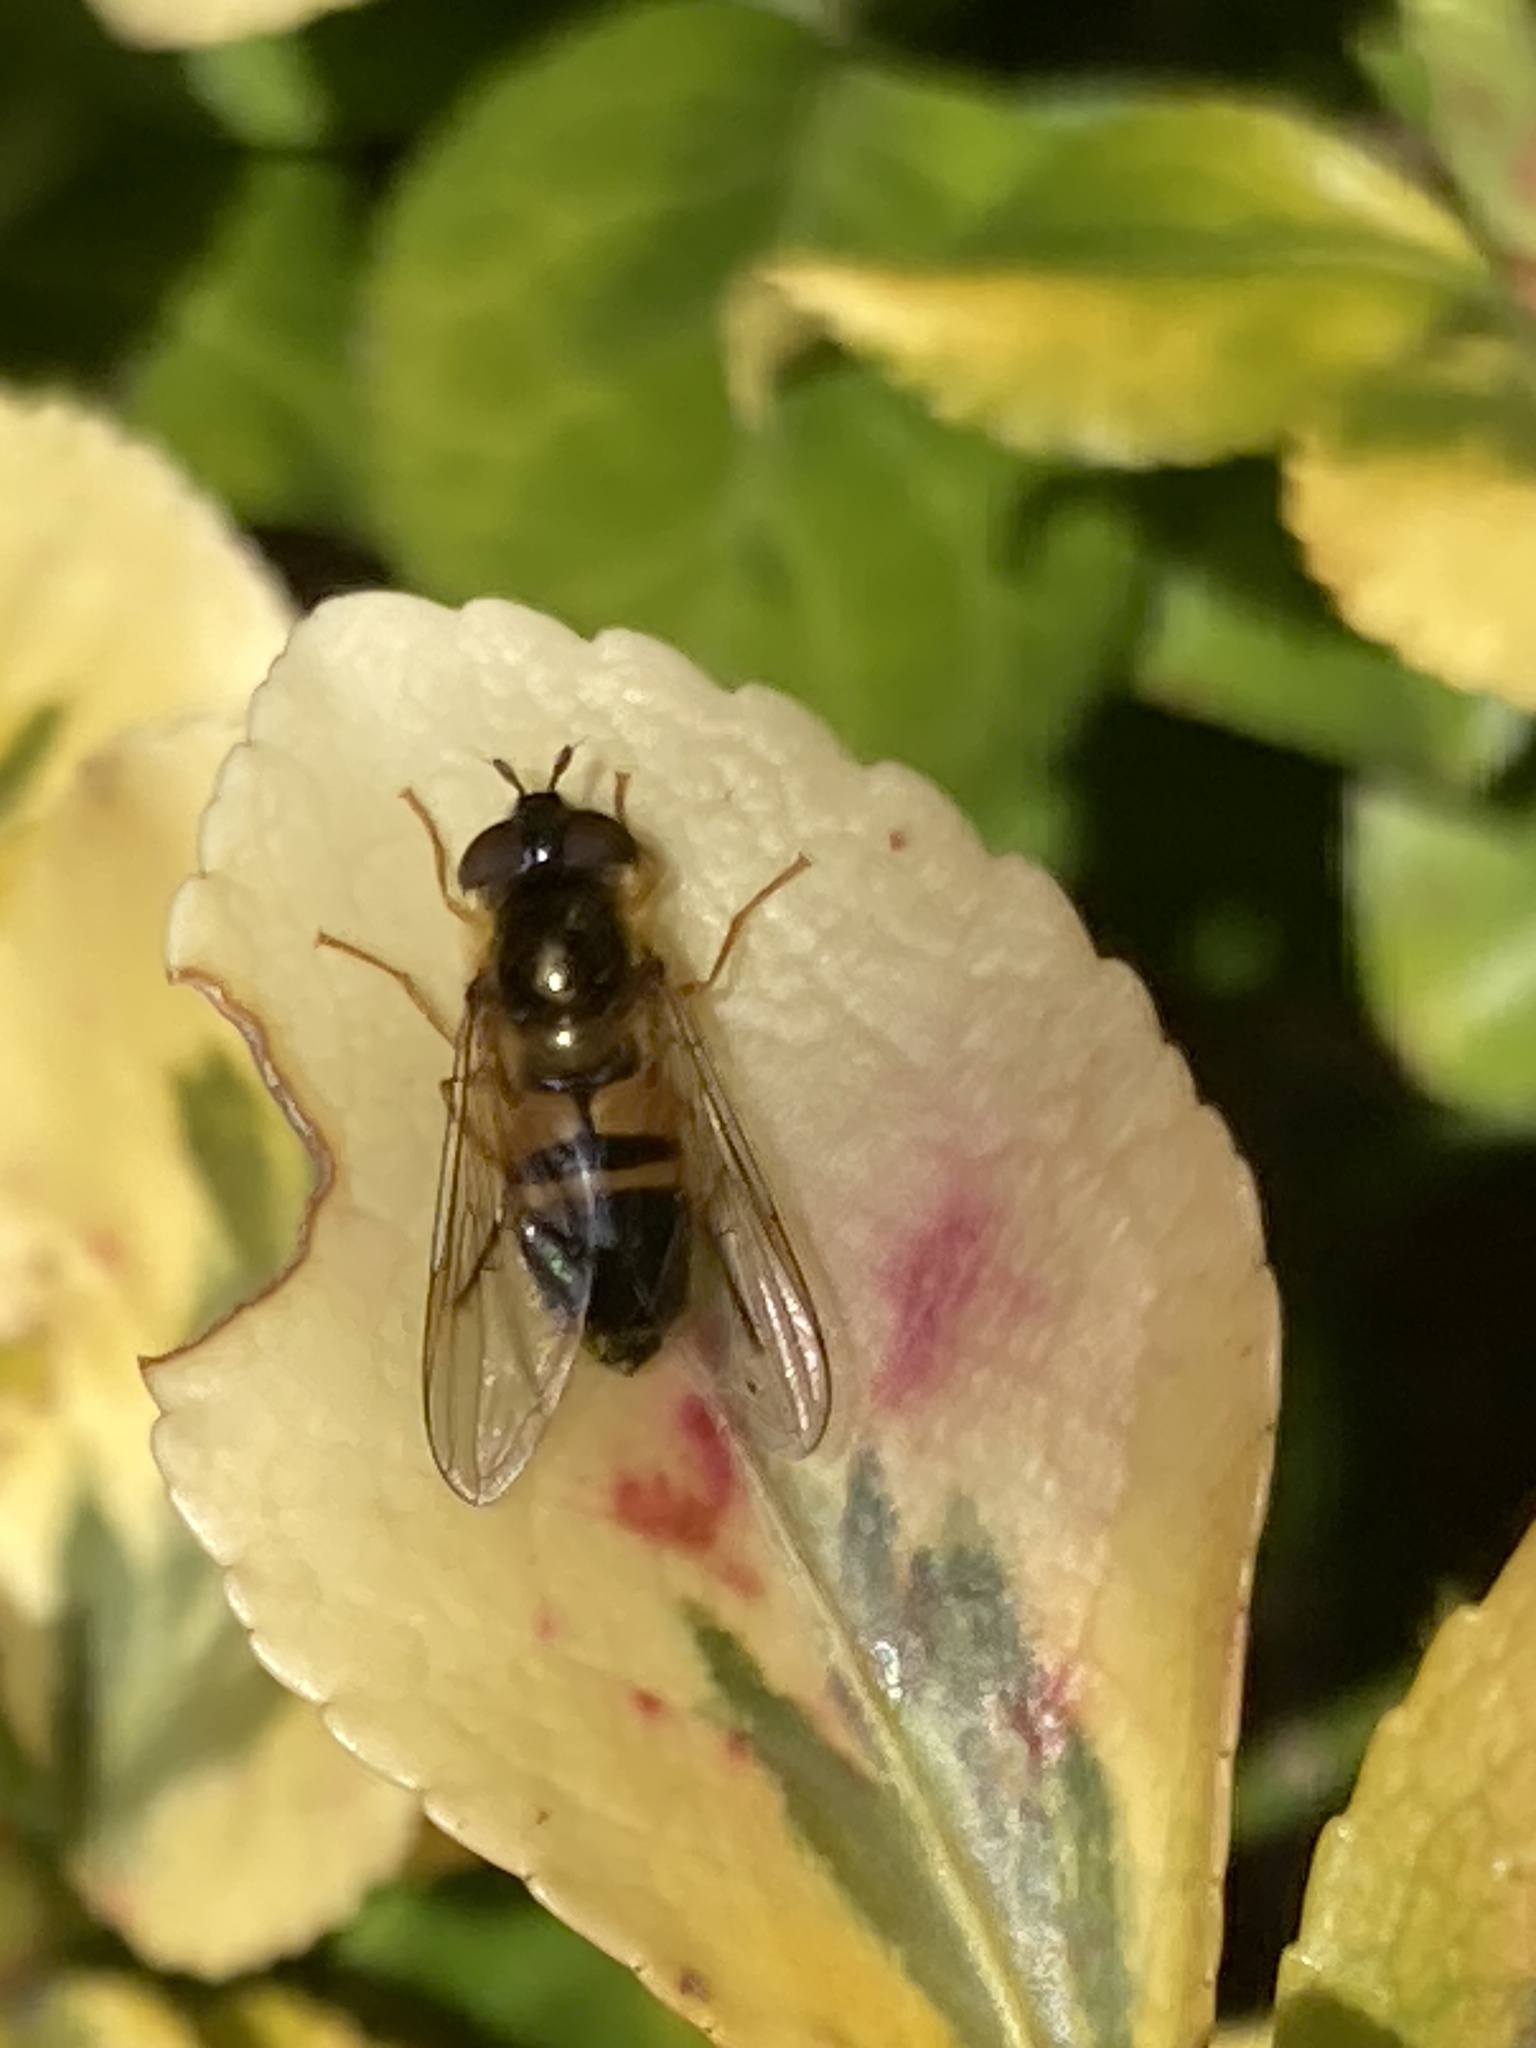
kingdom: Animalia
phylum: Arthropoda
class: Insecta
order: Diptera
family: Syrphidae
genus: Epistrophe
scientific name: Epistrophe eligans
